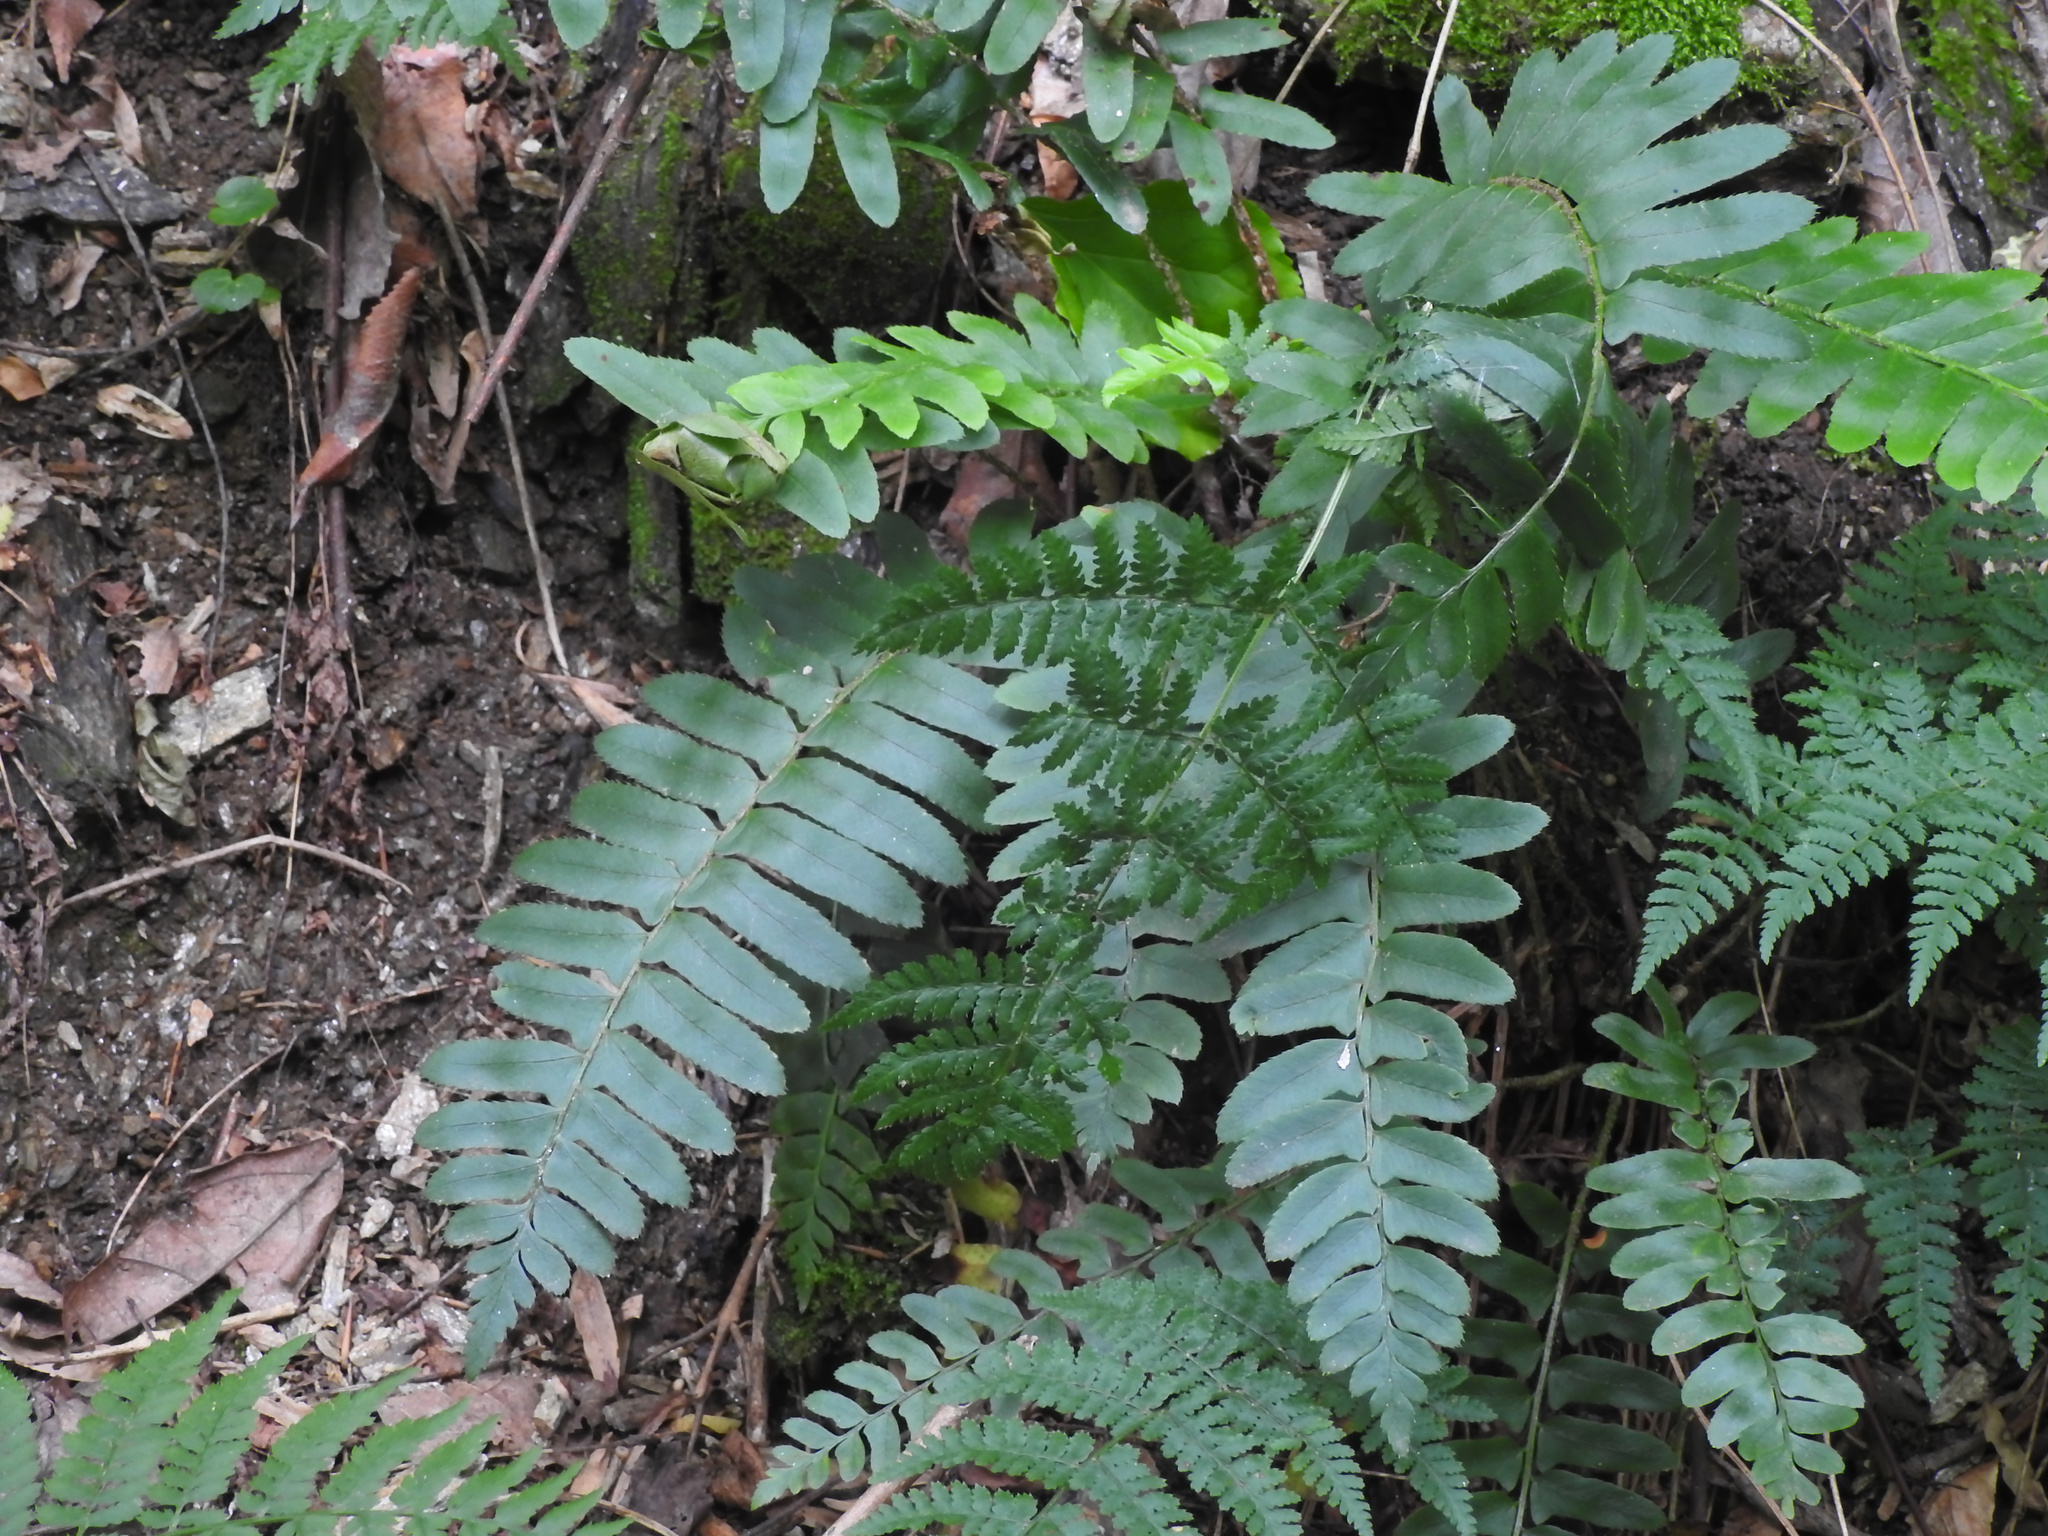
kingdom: Plantae
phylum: Tracheophyta
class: Polypodiopsida
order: Polypodiales
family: Dryopteridaceae
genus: Polystichum
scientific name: Polystichum acrostichoides
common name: Christmas fern
